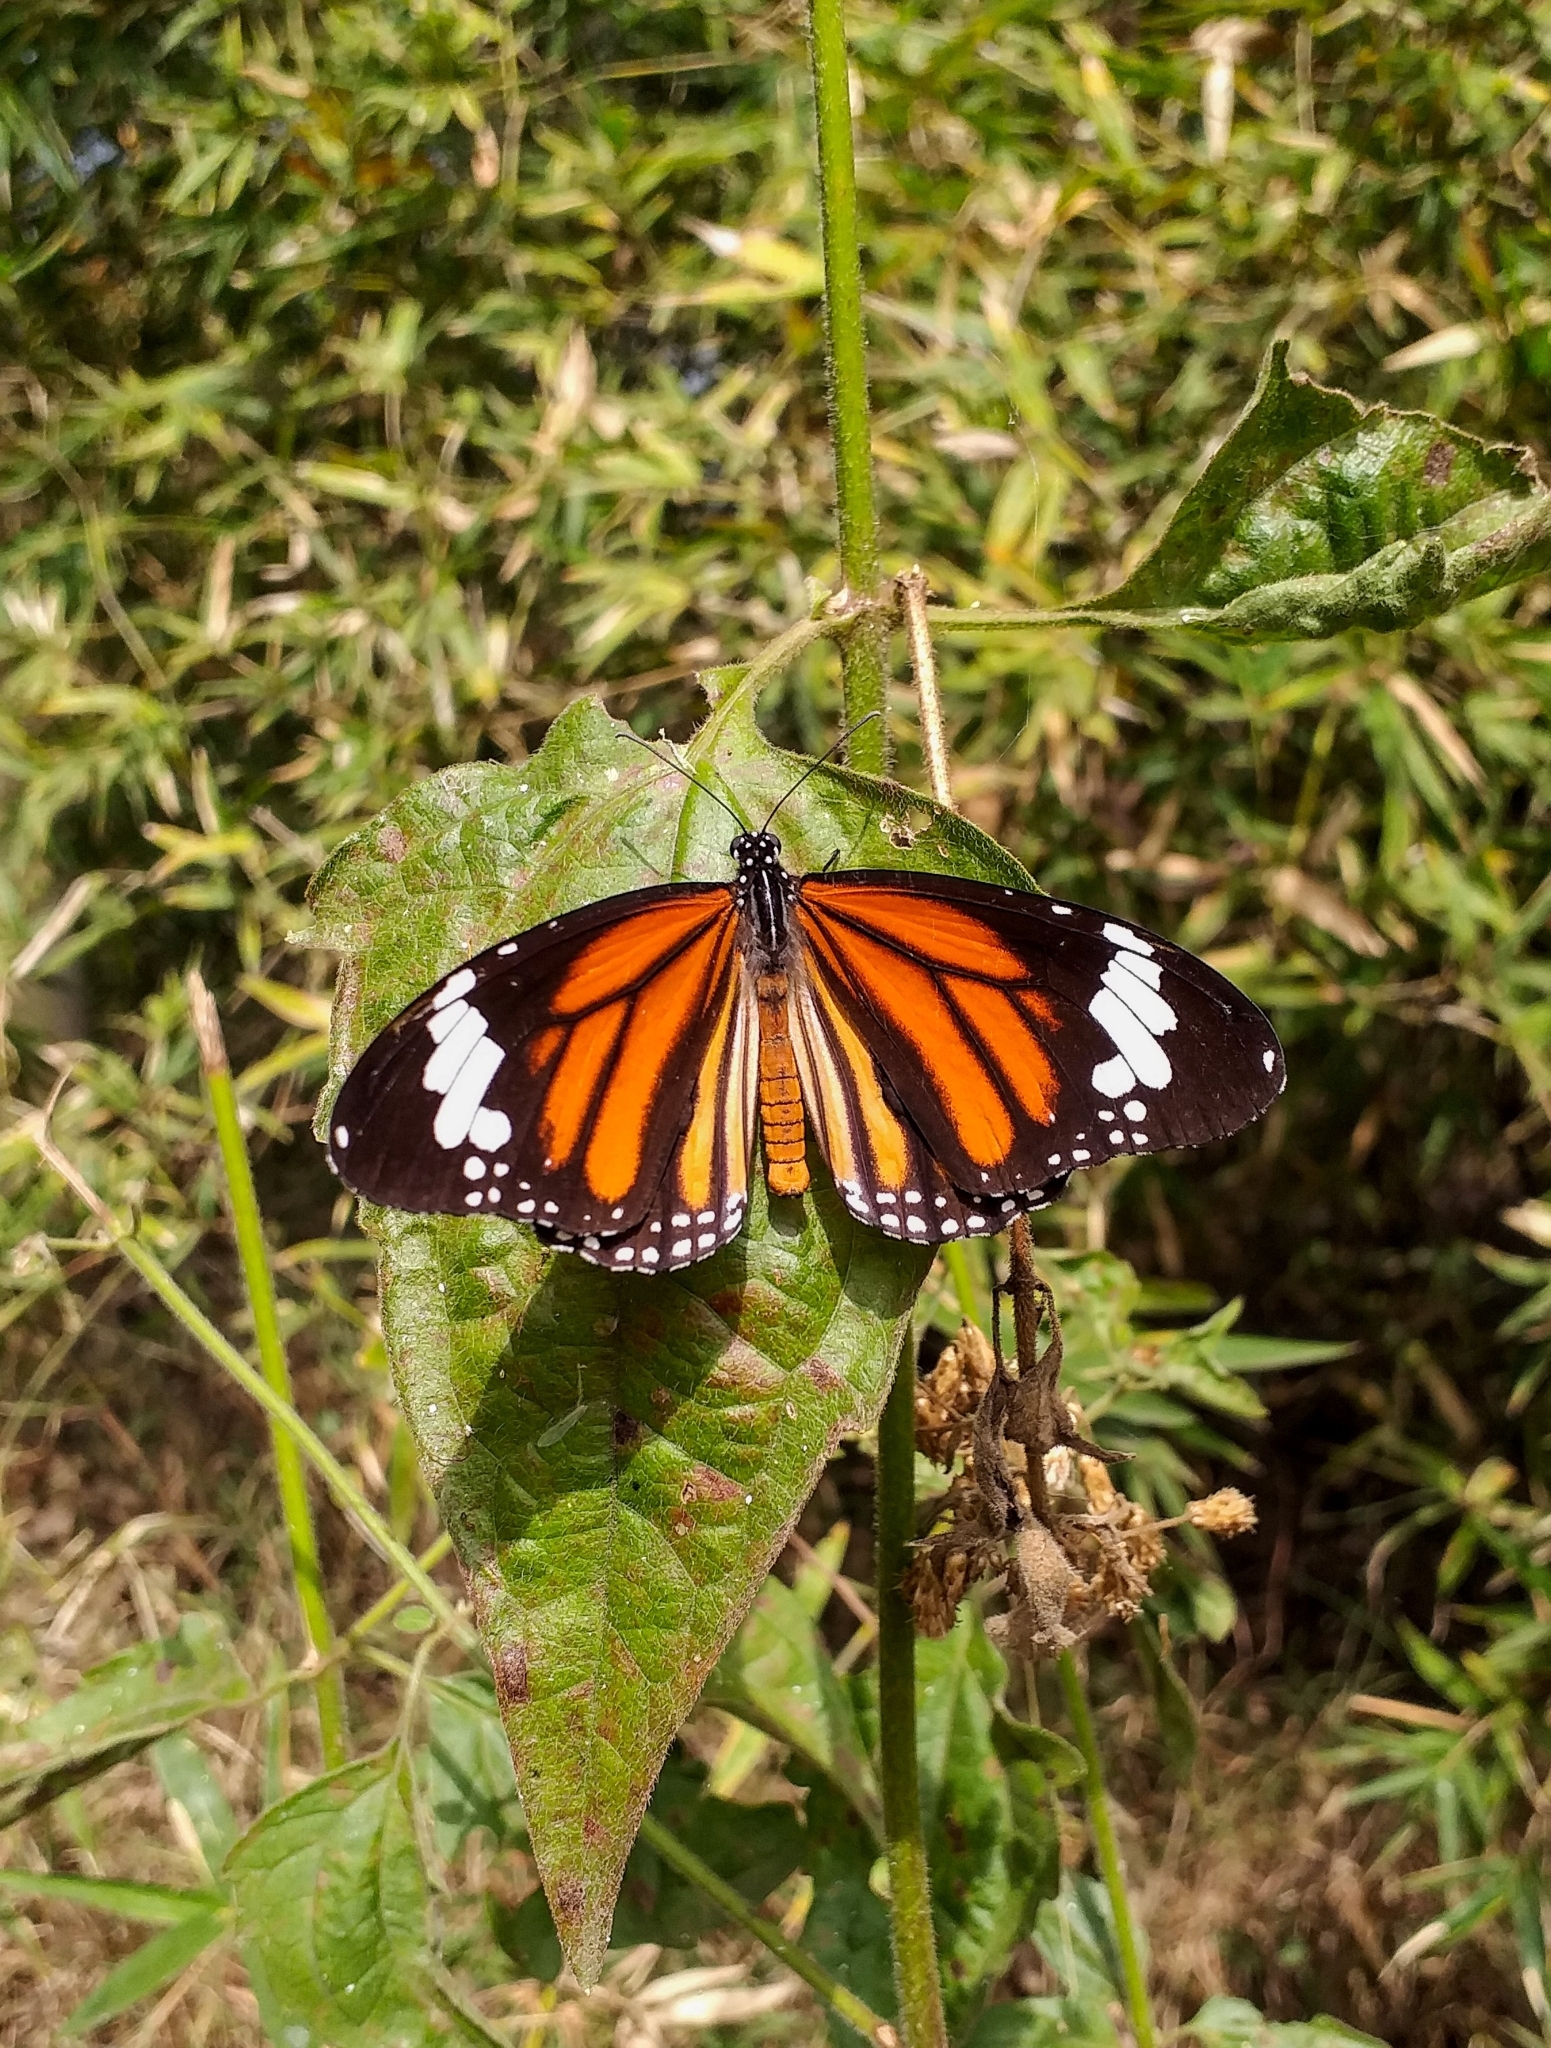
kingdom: Animalia
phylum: Arthropoda
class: Insecta
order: Lepidoptera
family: Nymphalidae
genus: Danaus
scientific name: Danaus genutia
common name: Common tiger butterfly
